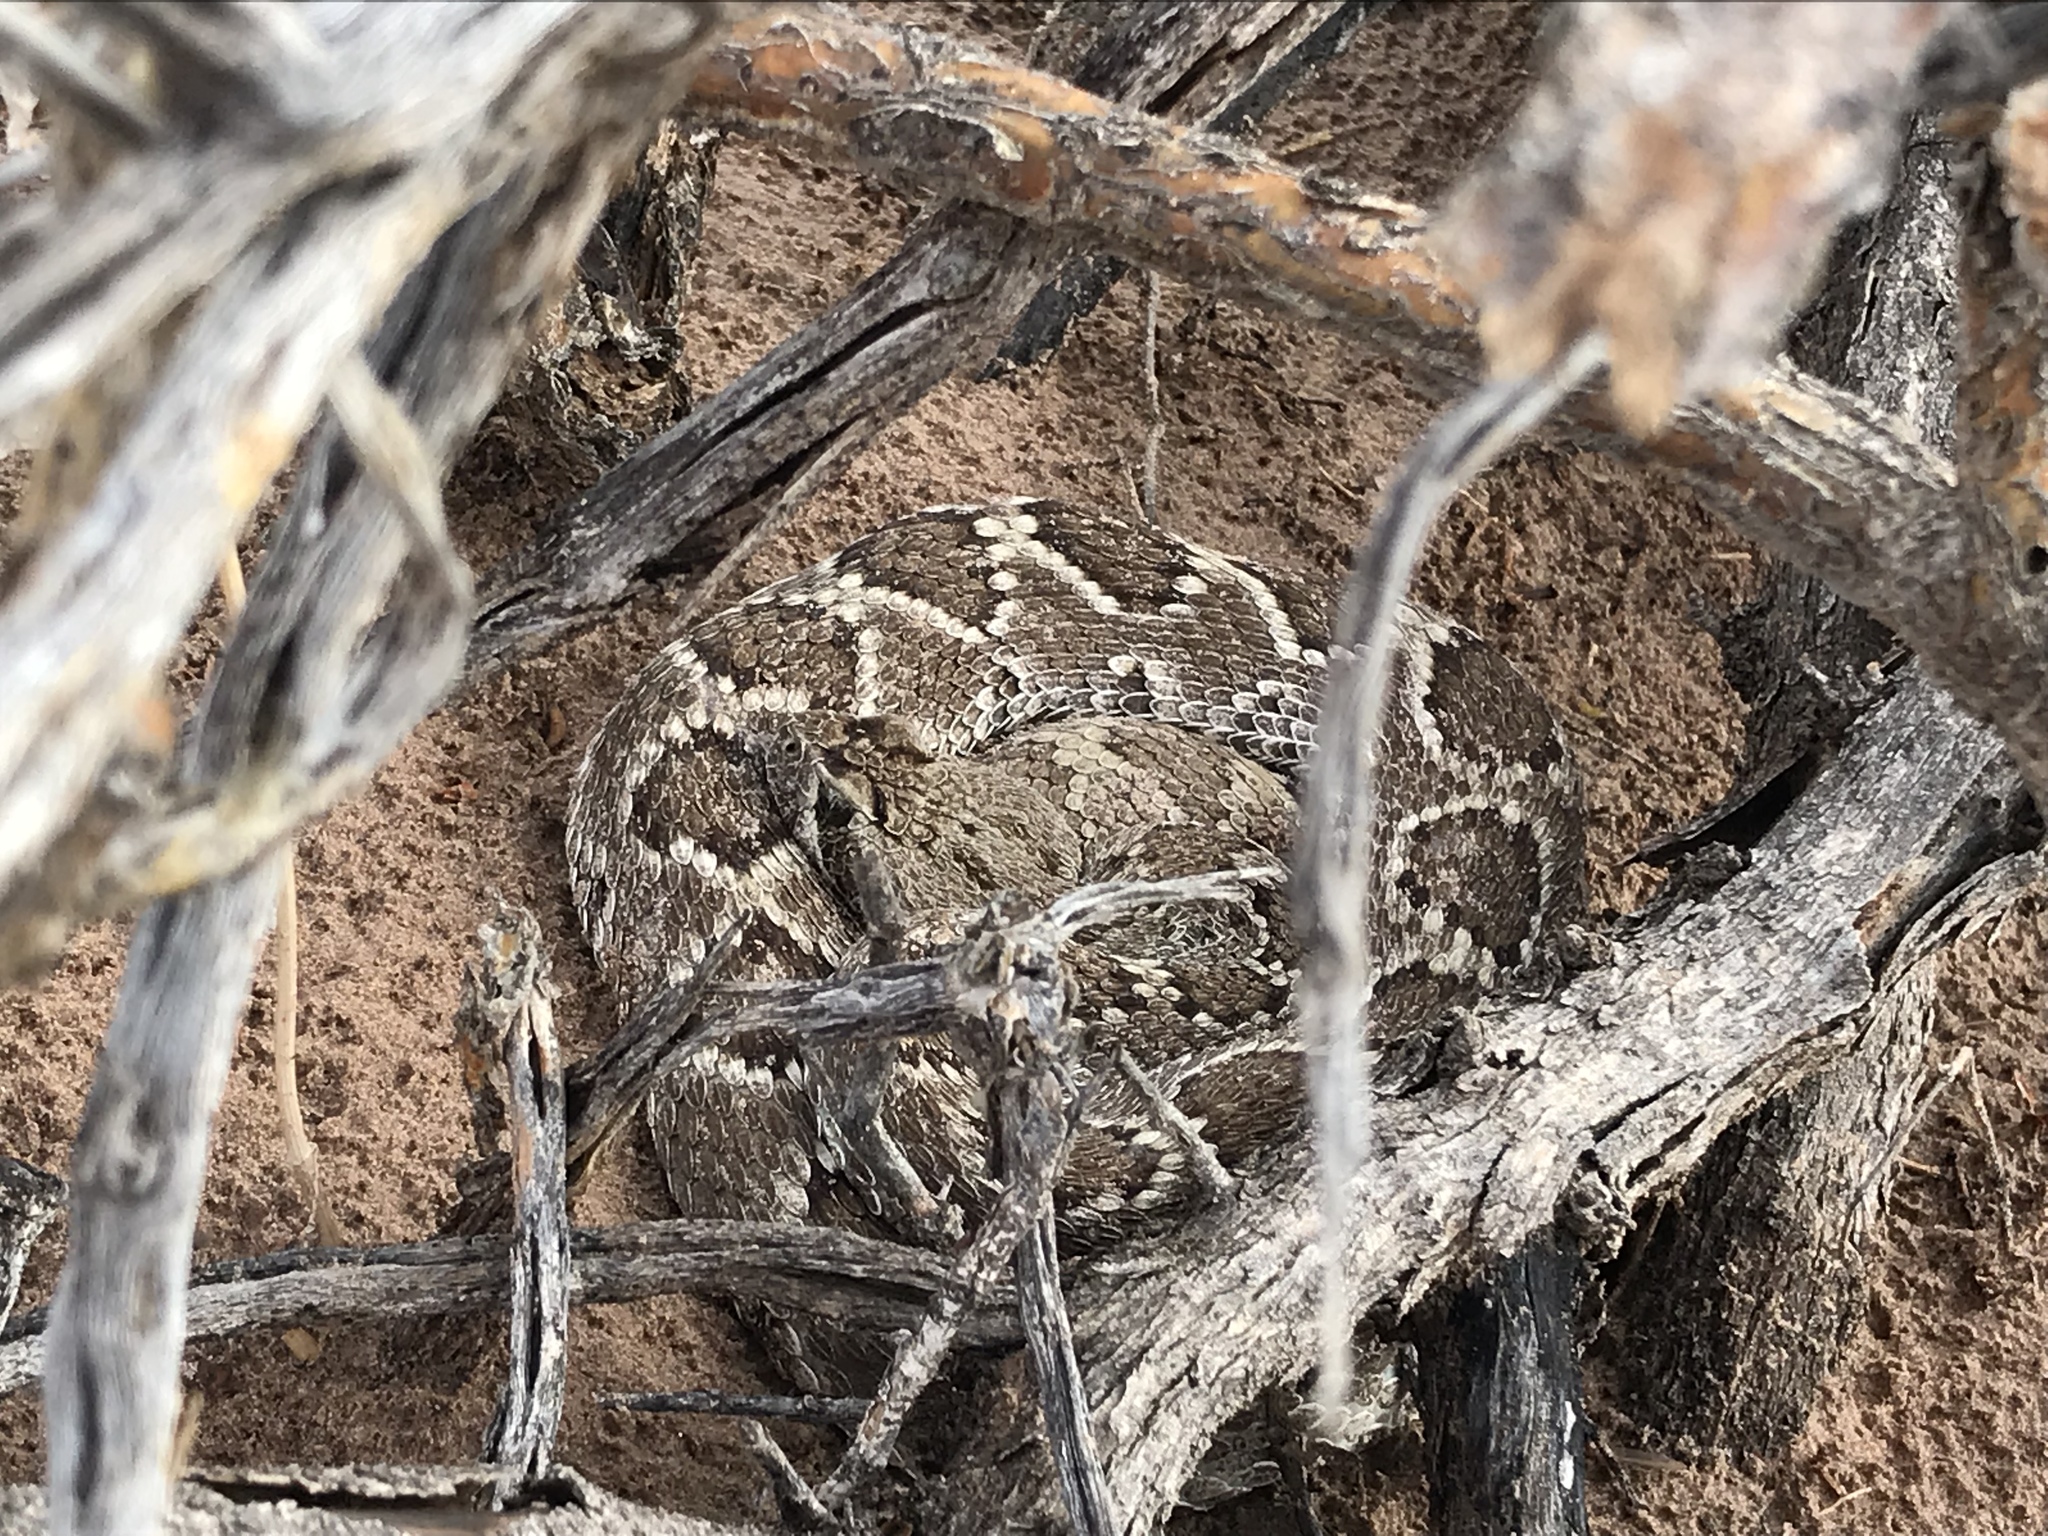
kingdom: Animalia
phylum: Chordata
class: Squamata
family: Viperidae
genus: Crotalus
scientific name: Crotalus atrox
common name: Western diamond-backed rattlesnake
